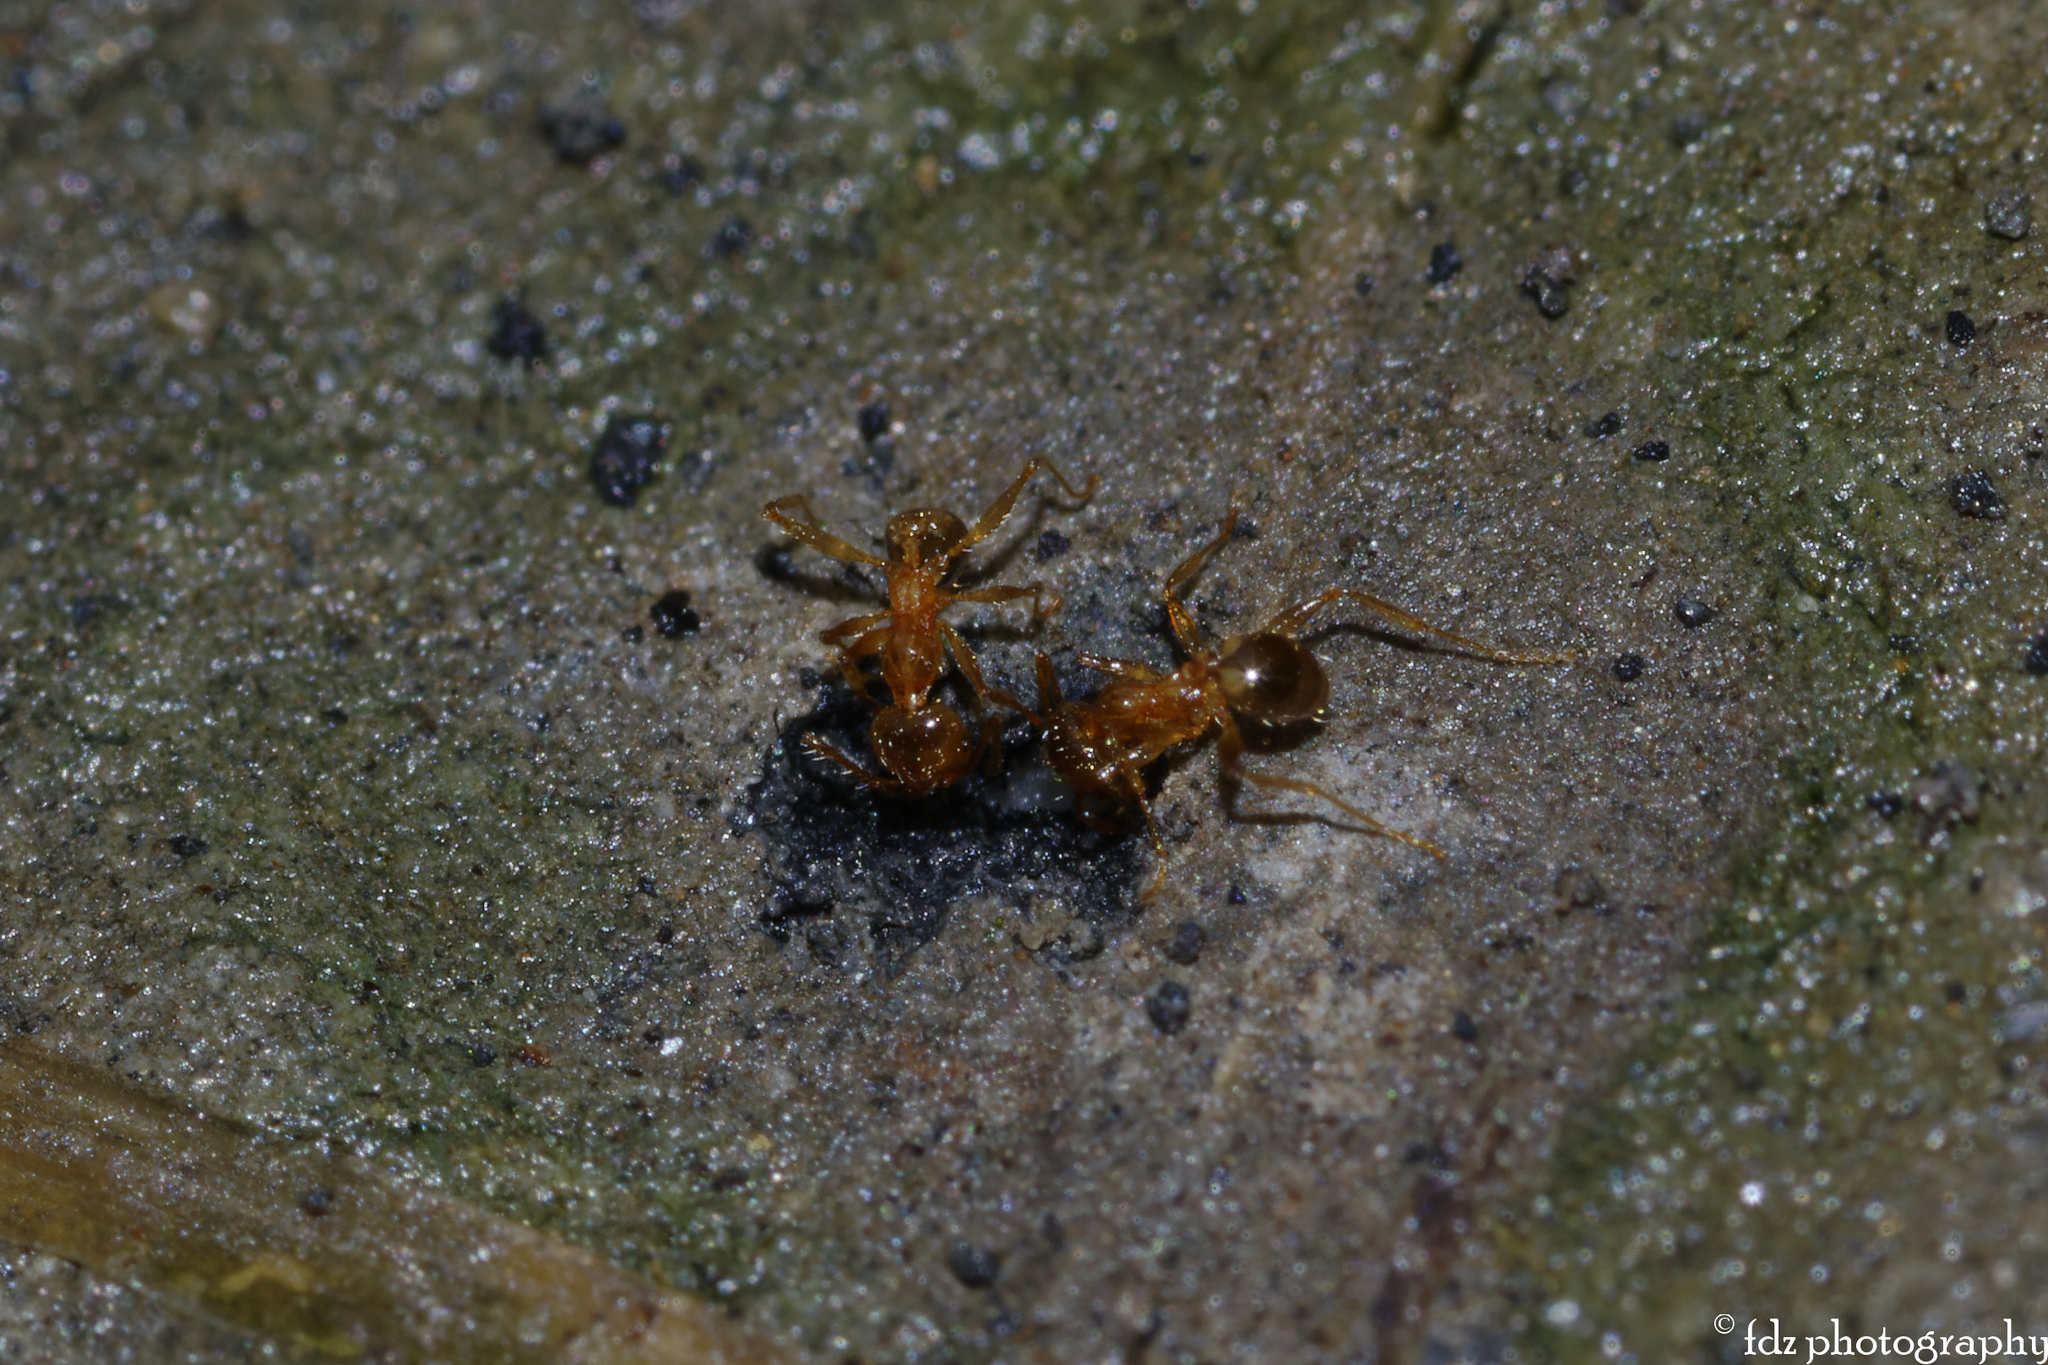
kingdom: Animalia
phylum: Arthropoda
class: Insecta
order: Hymenoptera
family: Formicidae
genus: Pheidole
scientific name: Pheidole pallidula
